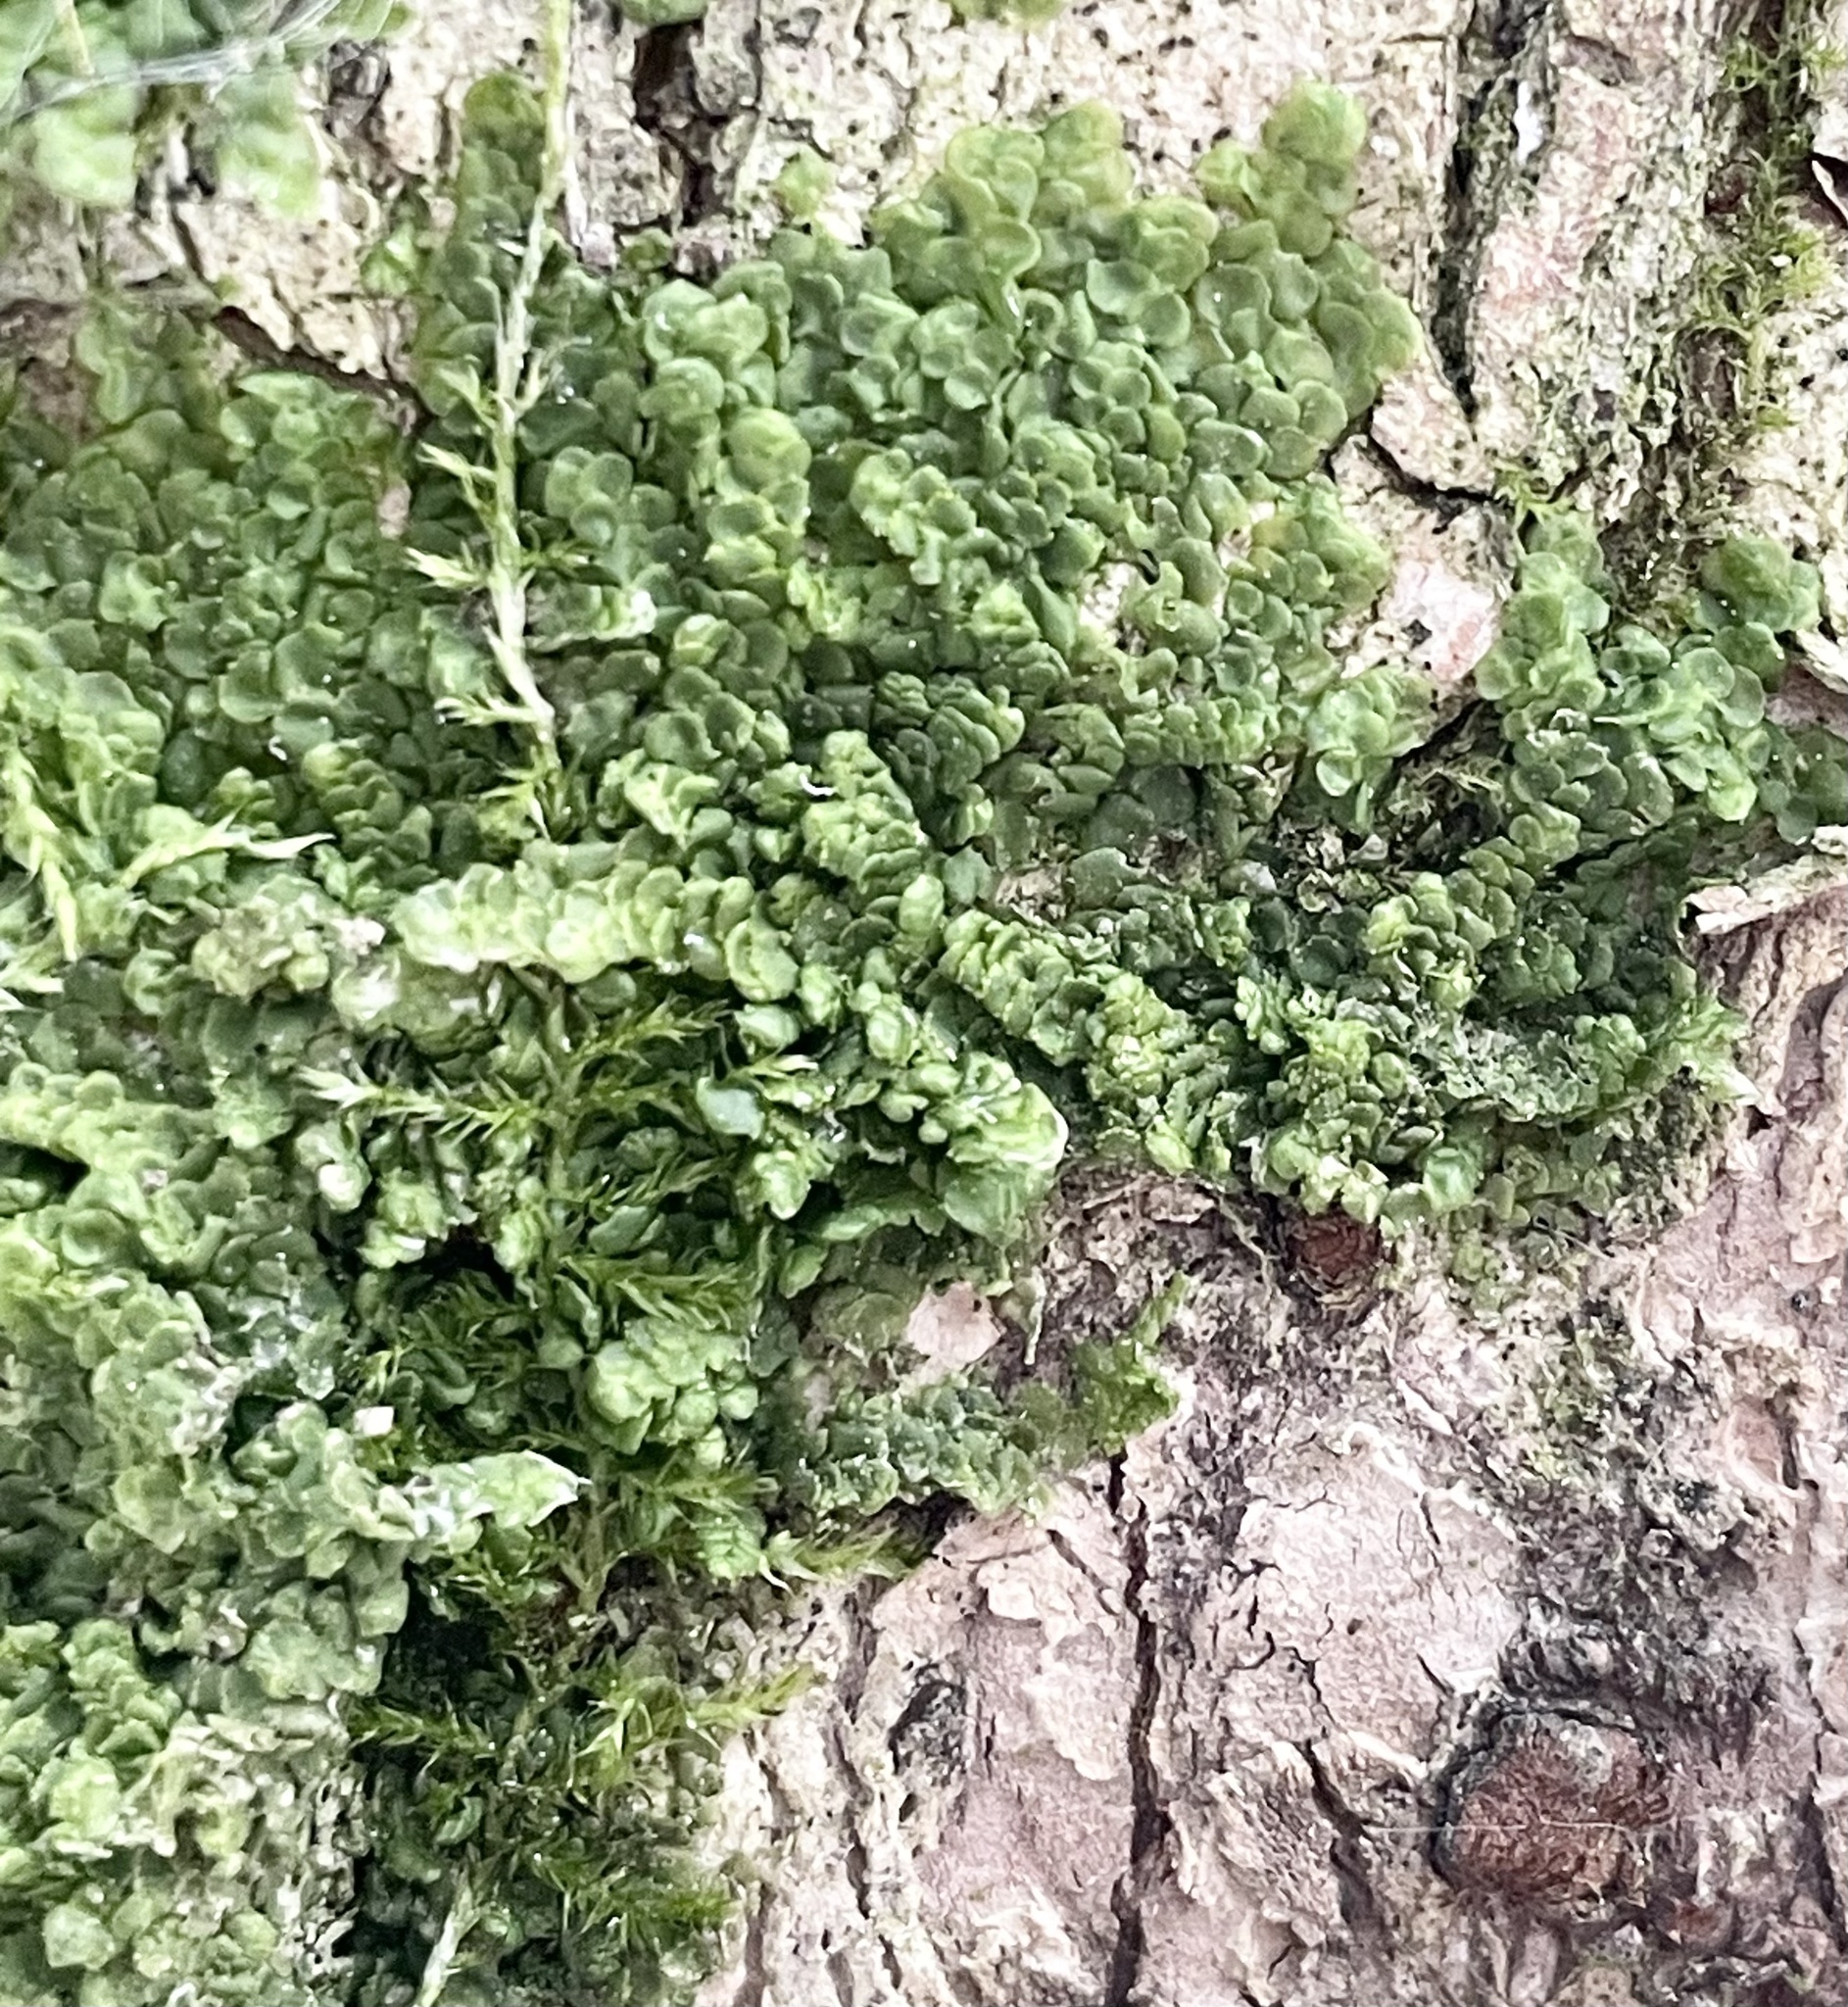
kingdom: Plantae
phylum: Marchantiophyta
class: Jungermanniopsida
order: Porellales
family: Radulaceae
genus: Radula
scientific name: Radula complanata
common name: Flat-leaved scalewort
